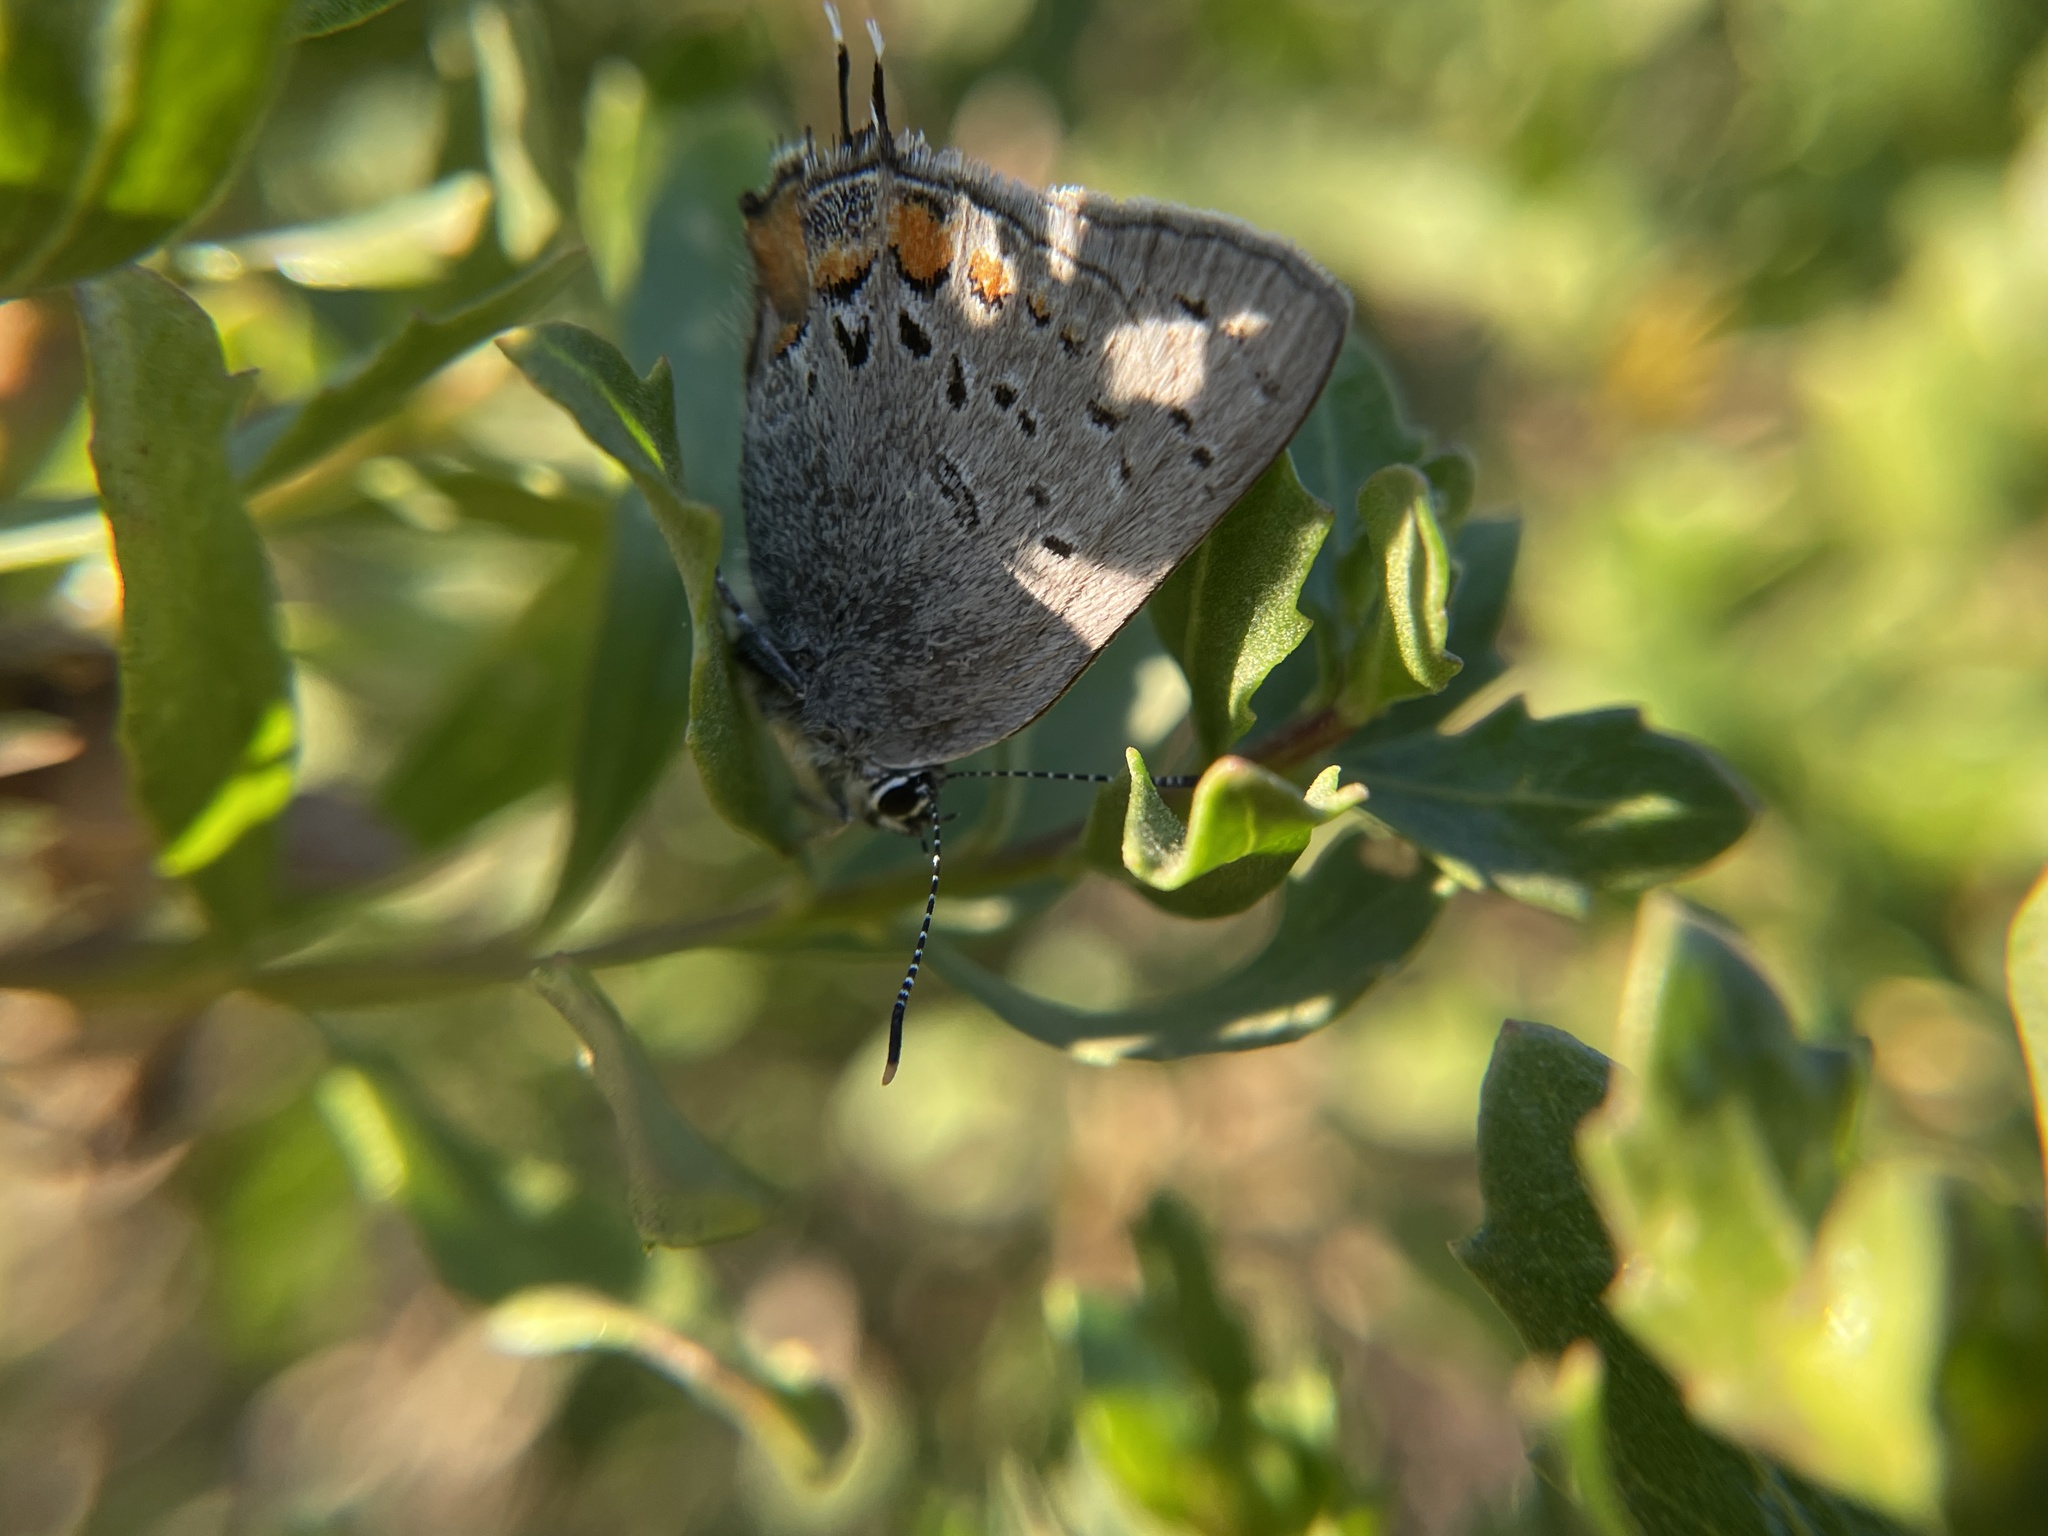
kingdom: Animalia
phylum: Arthropoda
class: Insecta
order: Lepidoptera
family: Lycaenidae
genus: Strymon
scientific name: Strymon acadica
